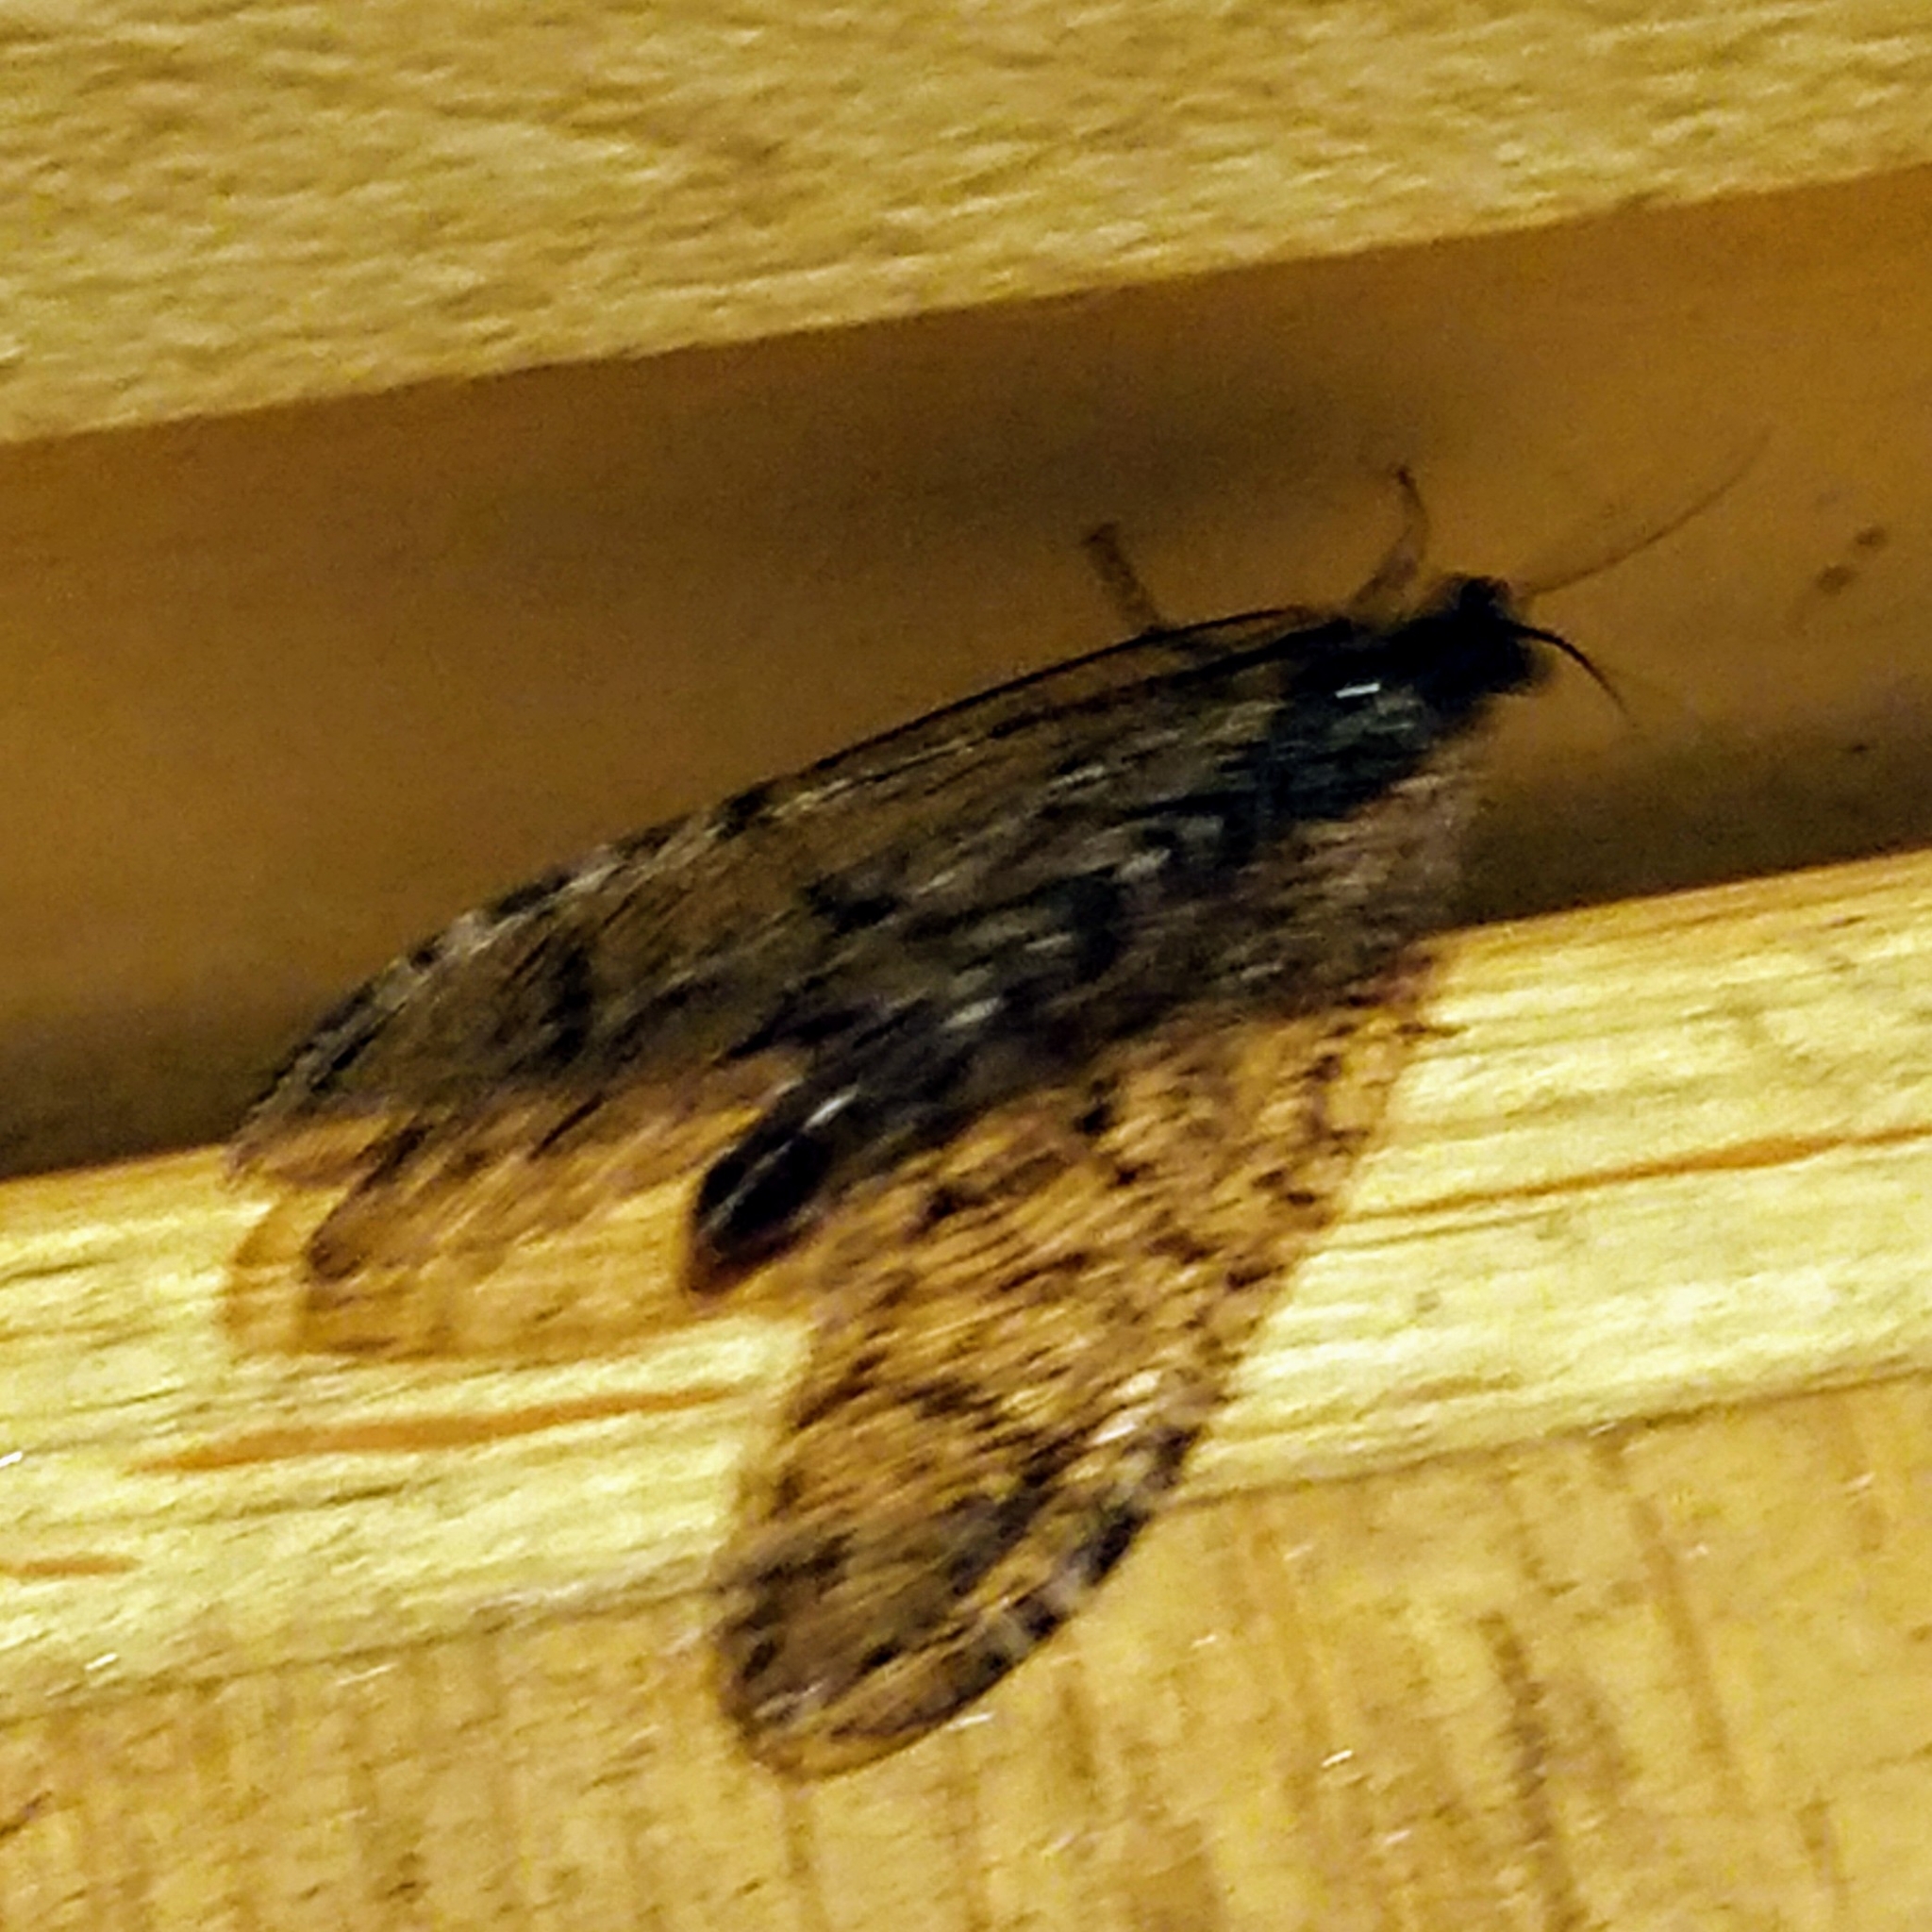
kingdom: Animalia
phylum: Arthropoda
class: Insecta
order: Neuroptera
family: Ithonidae
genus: Polystoechotes
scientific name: Polystoechotes punctata
